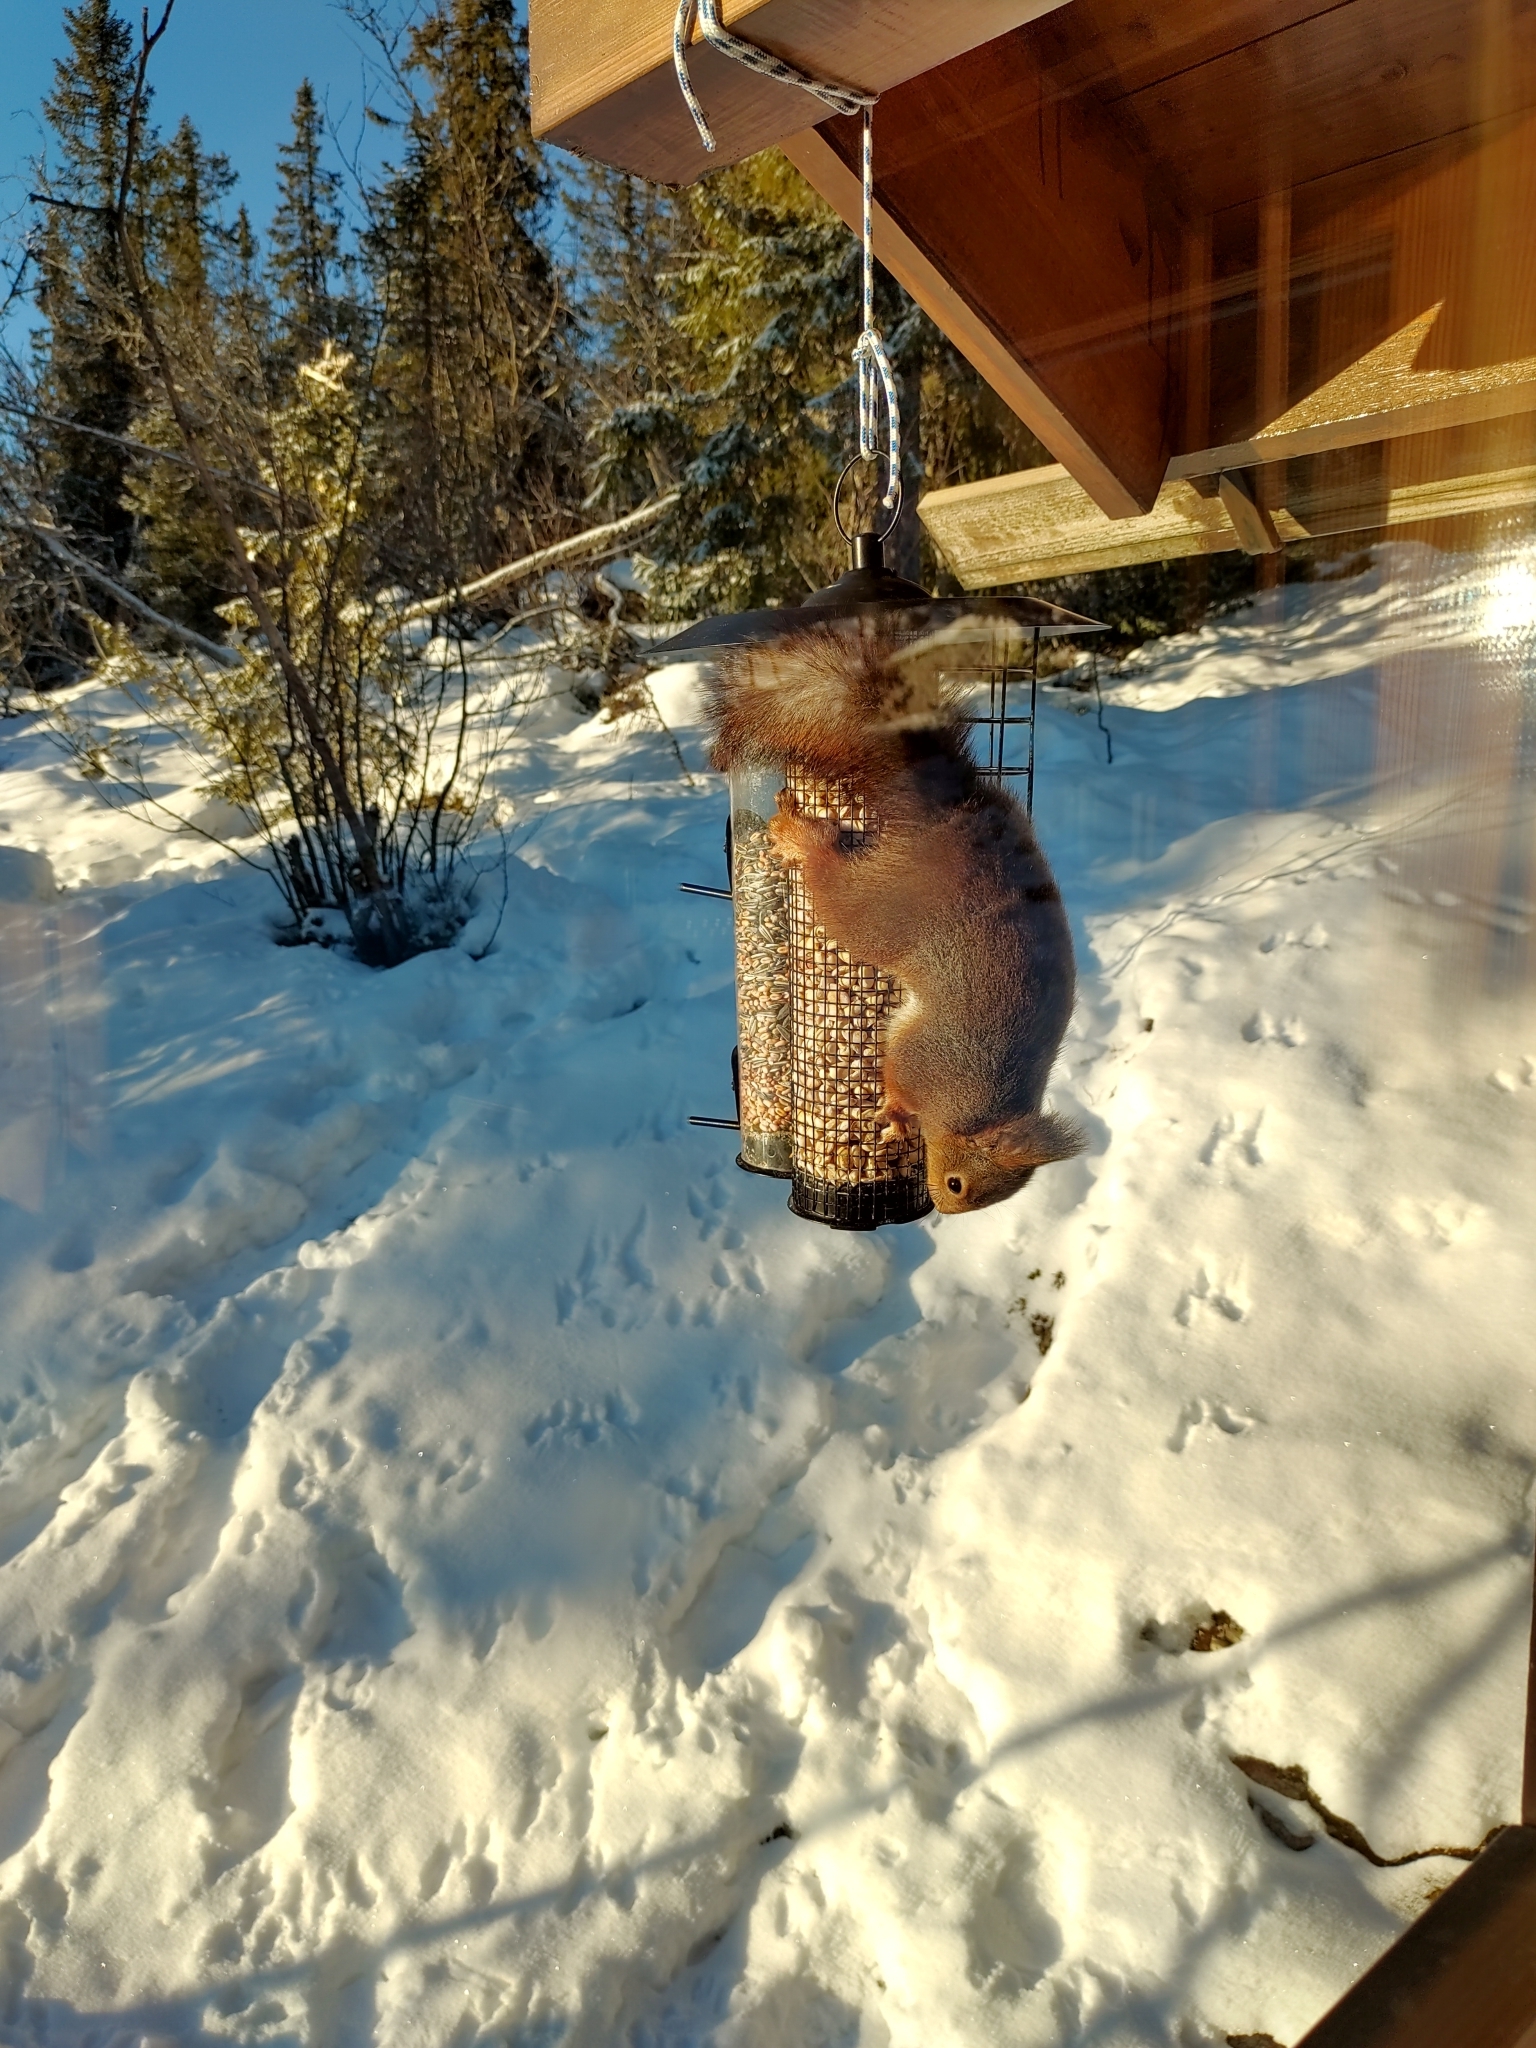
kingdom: Animalia
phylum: Chordata
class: Mammalia
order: Rodentia
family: Sciuridae
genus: Sciurus
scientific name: Sciurus vulgaris
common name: Eurasian red squirrel
